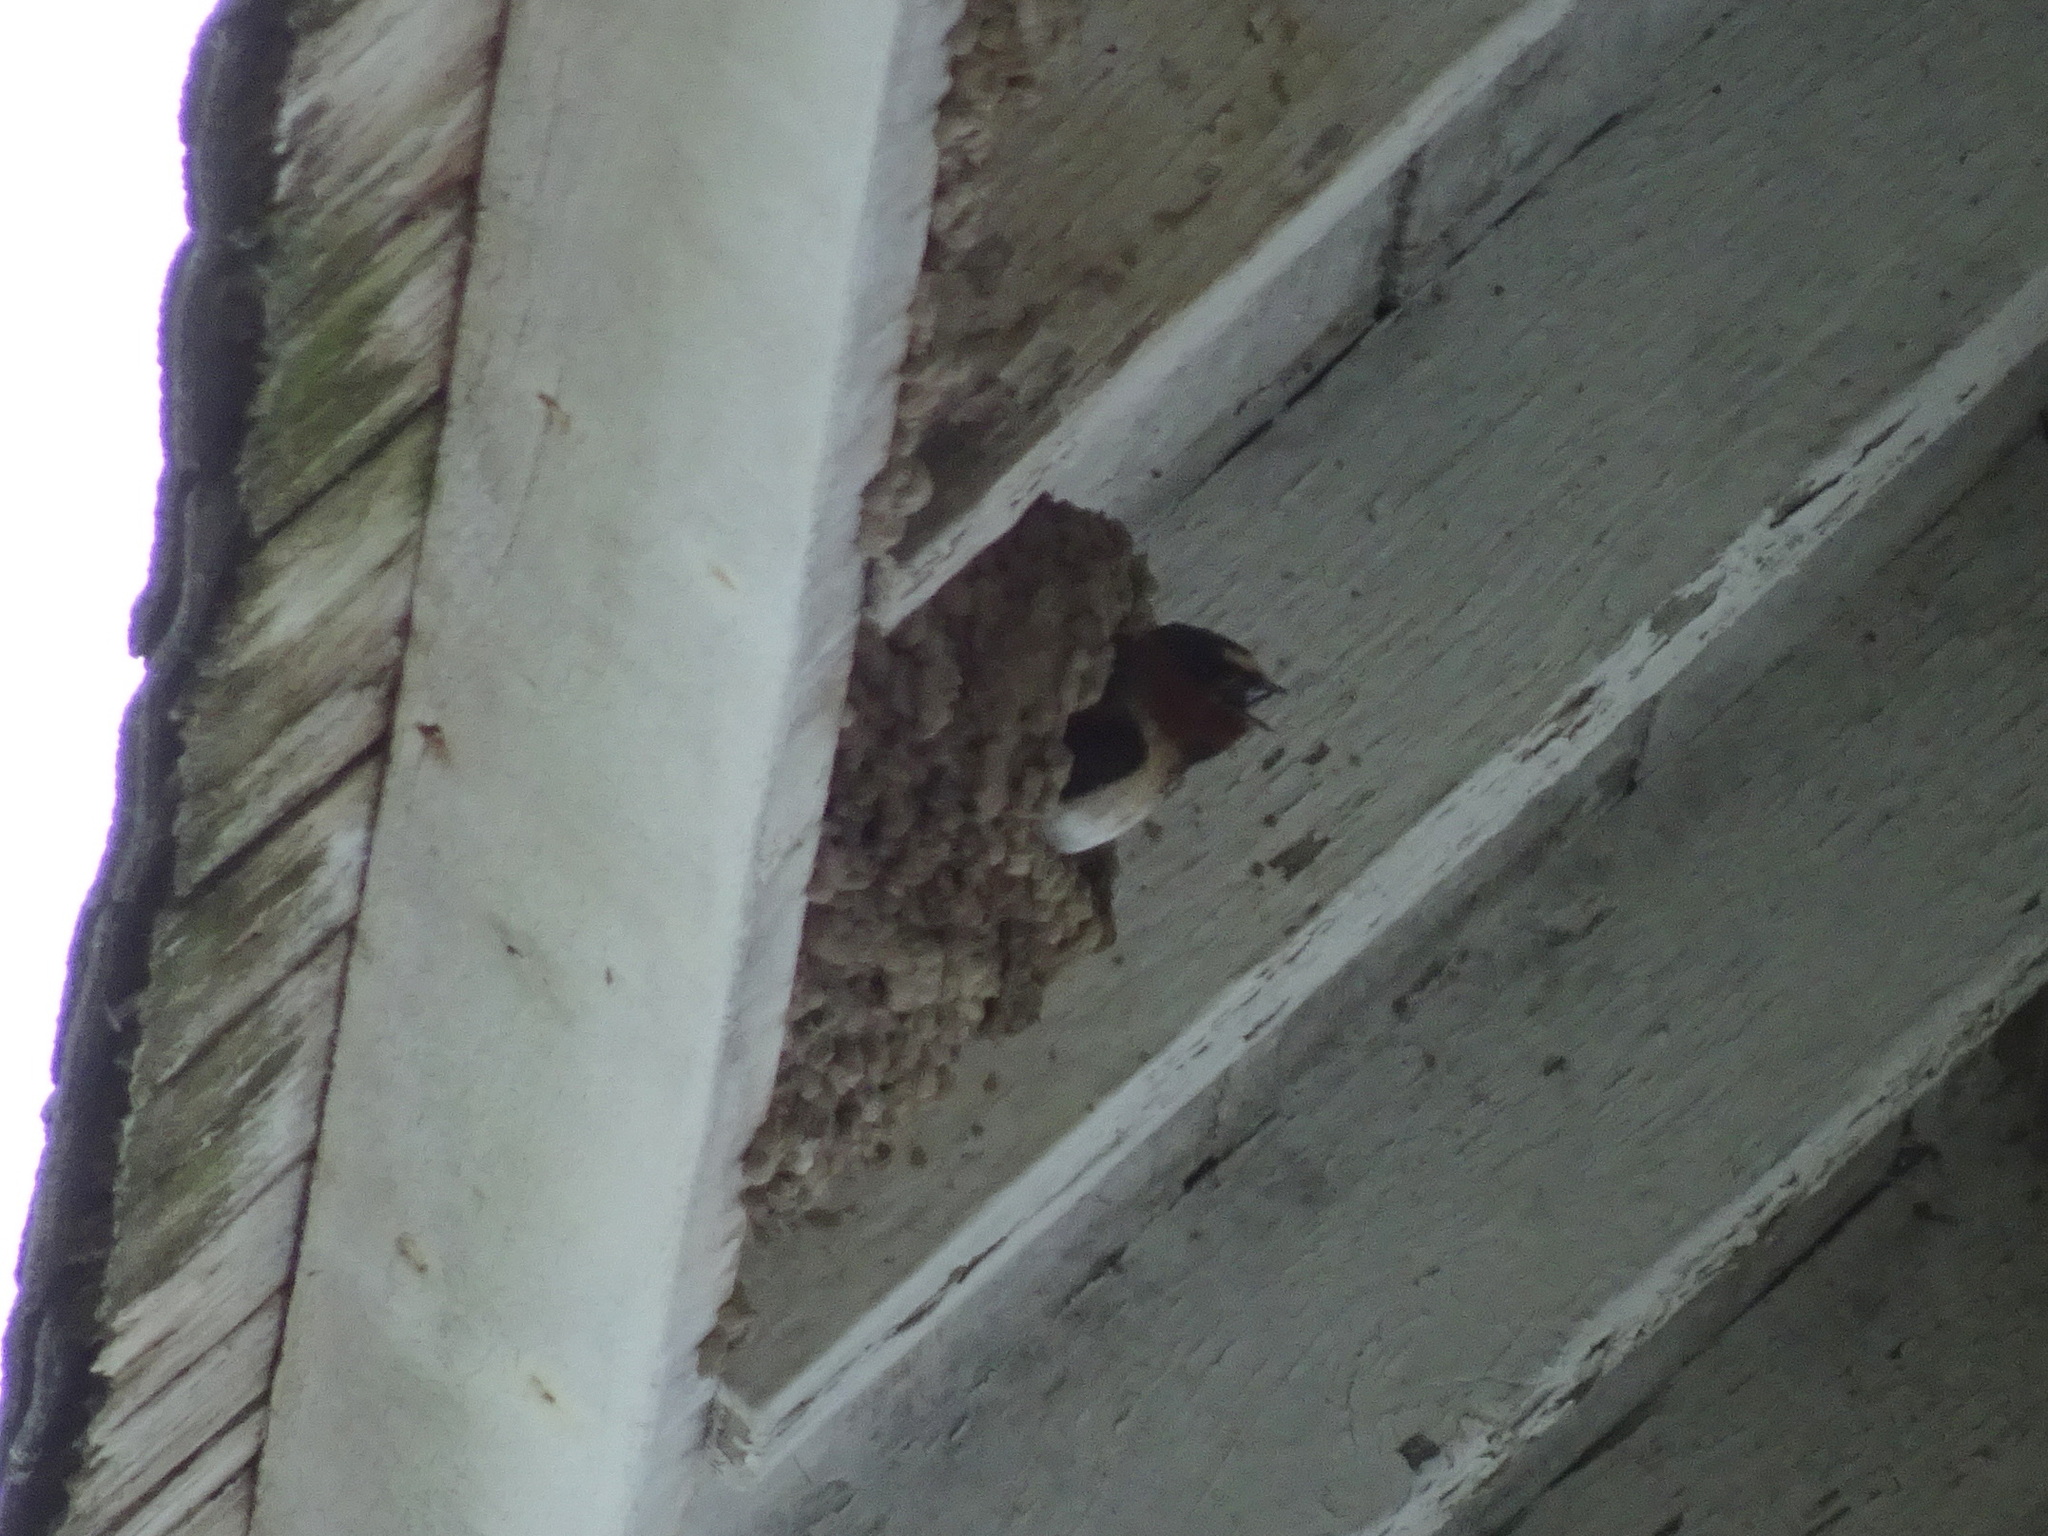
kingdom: Animalia
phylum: Chordata
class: Aves
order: Passeriformes
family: Hirundinidae
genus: Petrochelidon
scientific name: Petrochelidon pyrrhonota
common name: American cliff swallow
